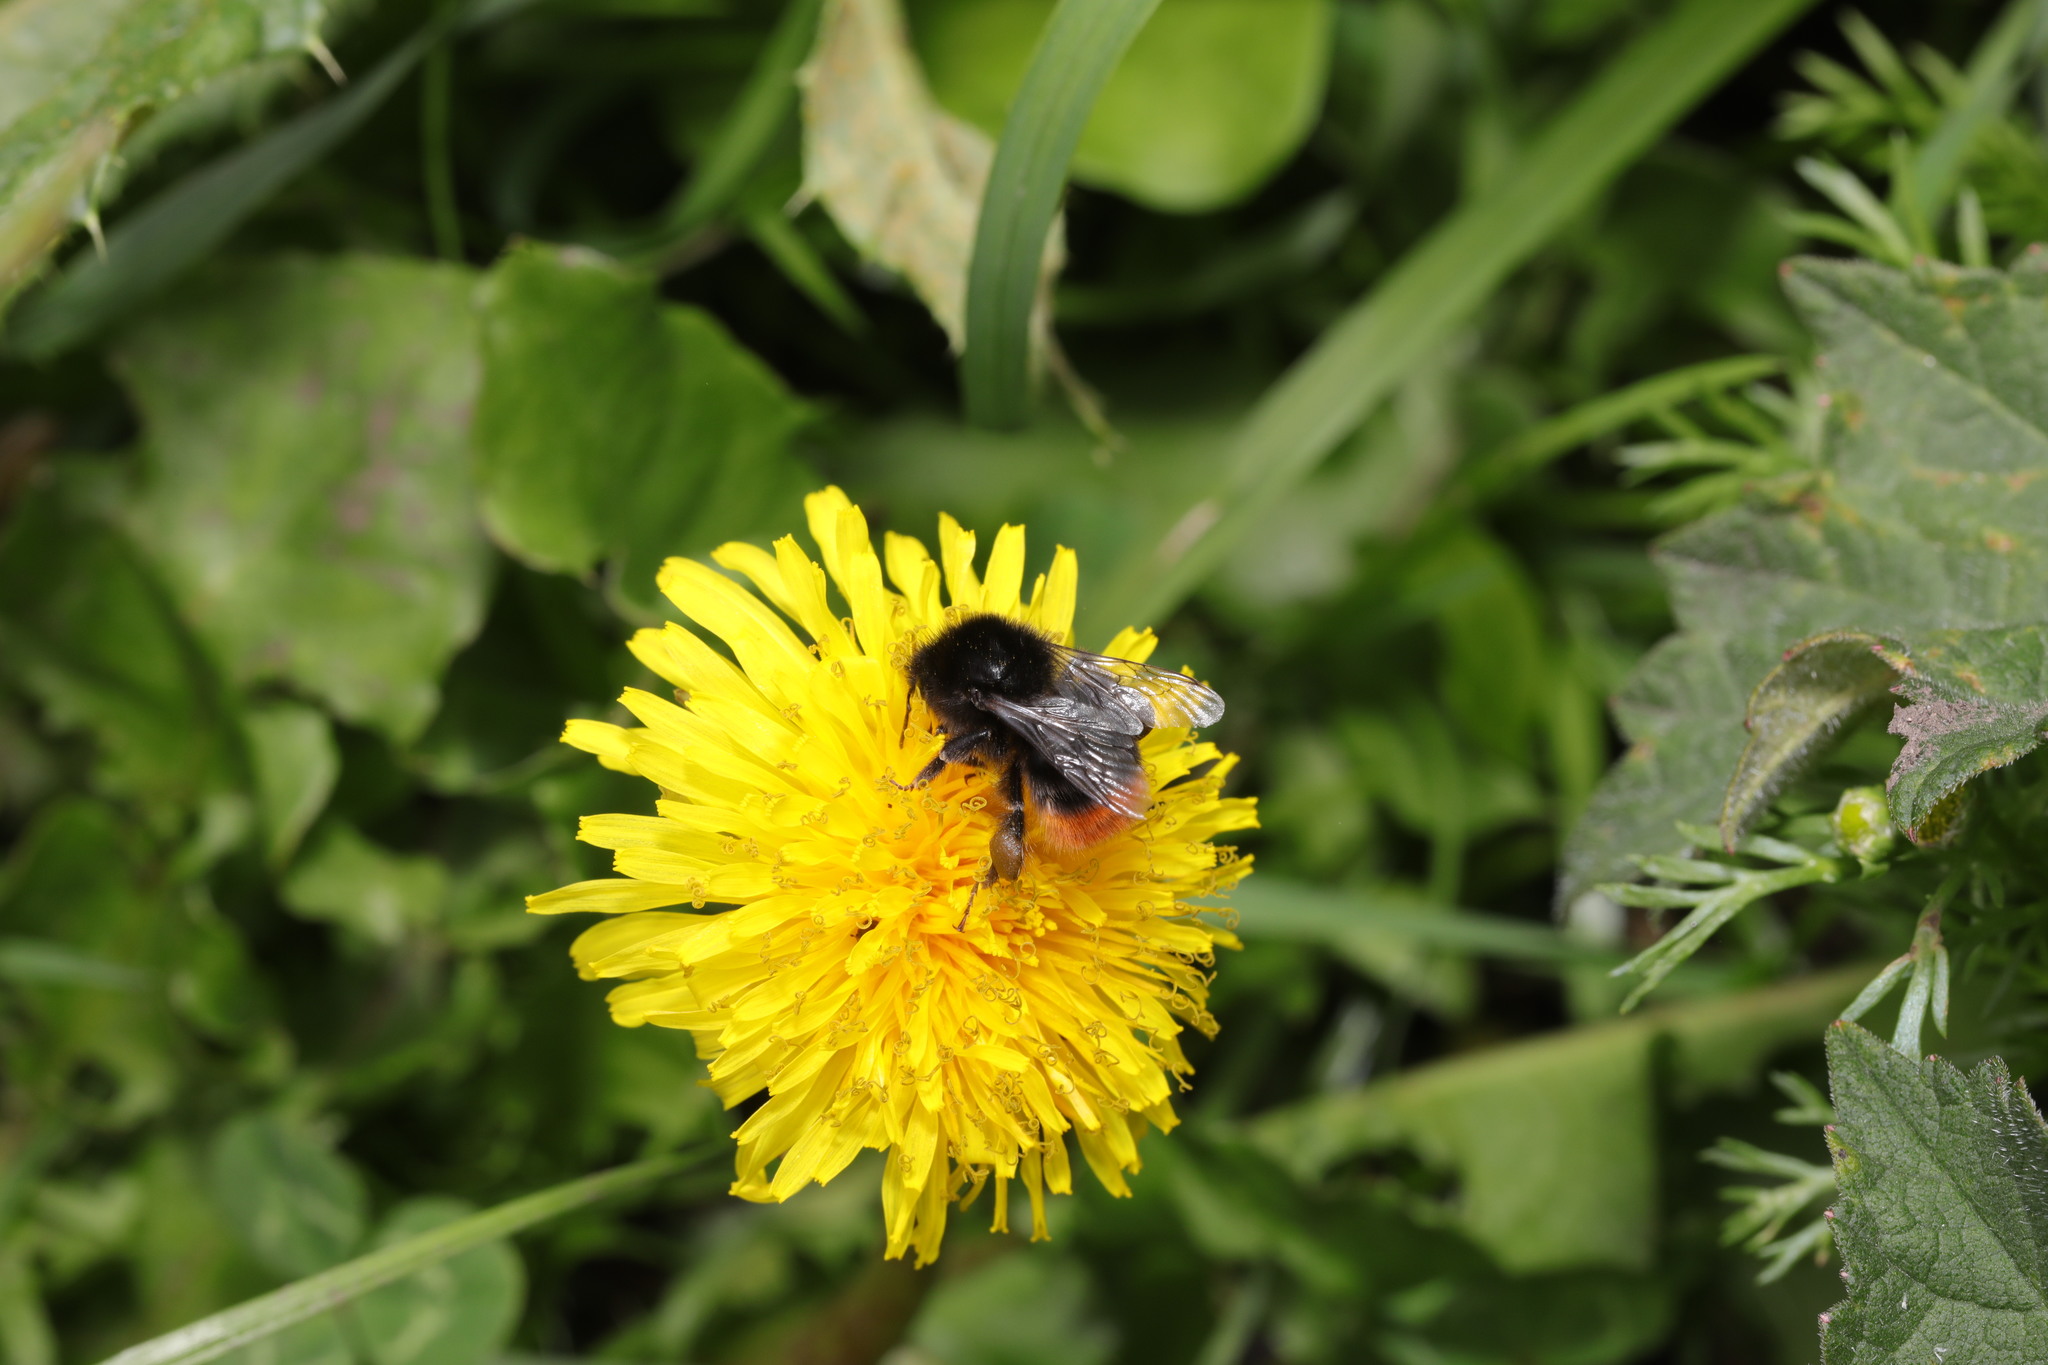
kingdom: Animalia
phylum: Arthropoda
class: Insecta
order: Hymenoptera
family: Apidae
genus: Bombus
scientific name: Bombus lapidarius
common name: Large red-tailed humble-bee
